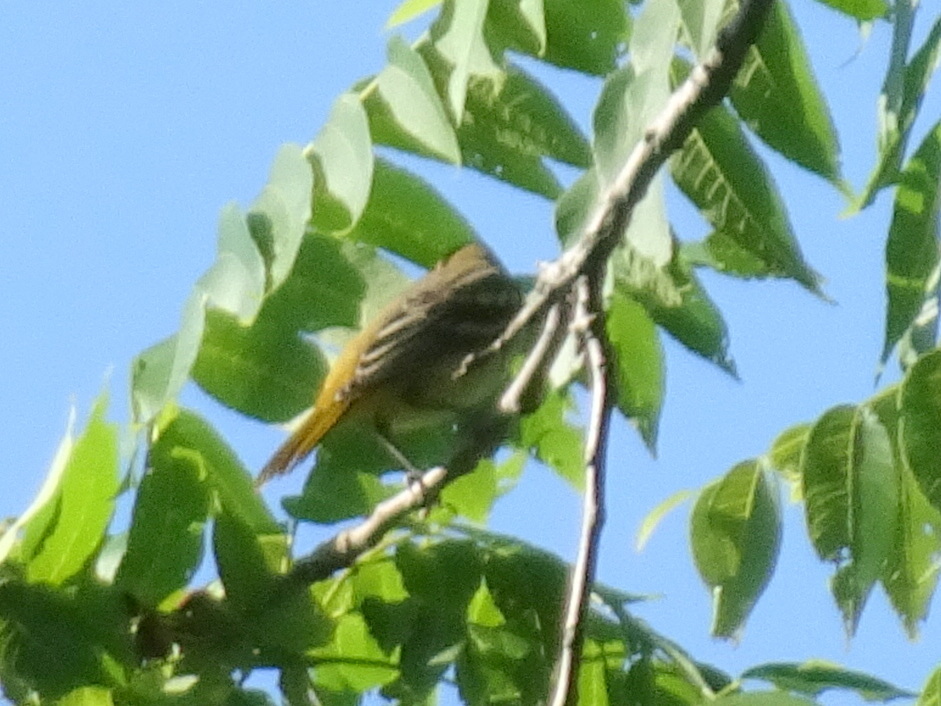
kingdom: Animalia
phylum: Chordata
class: Aves
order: Passeriformes
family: Icteridae
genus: Icterus
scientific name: Icterus galbula
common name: Baltimore oriole
